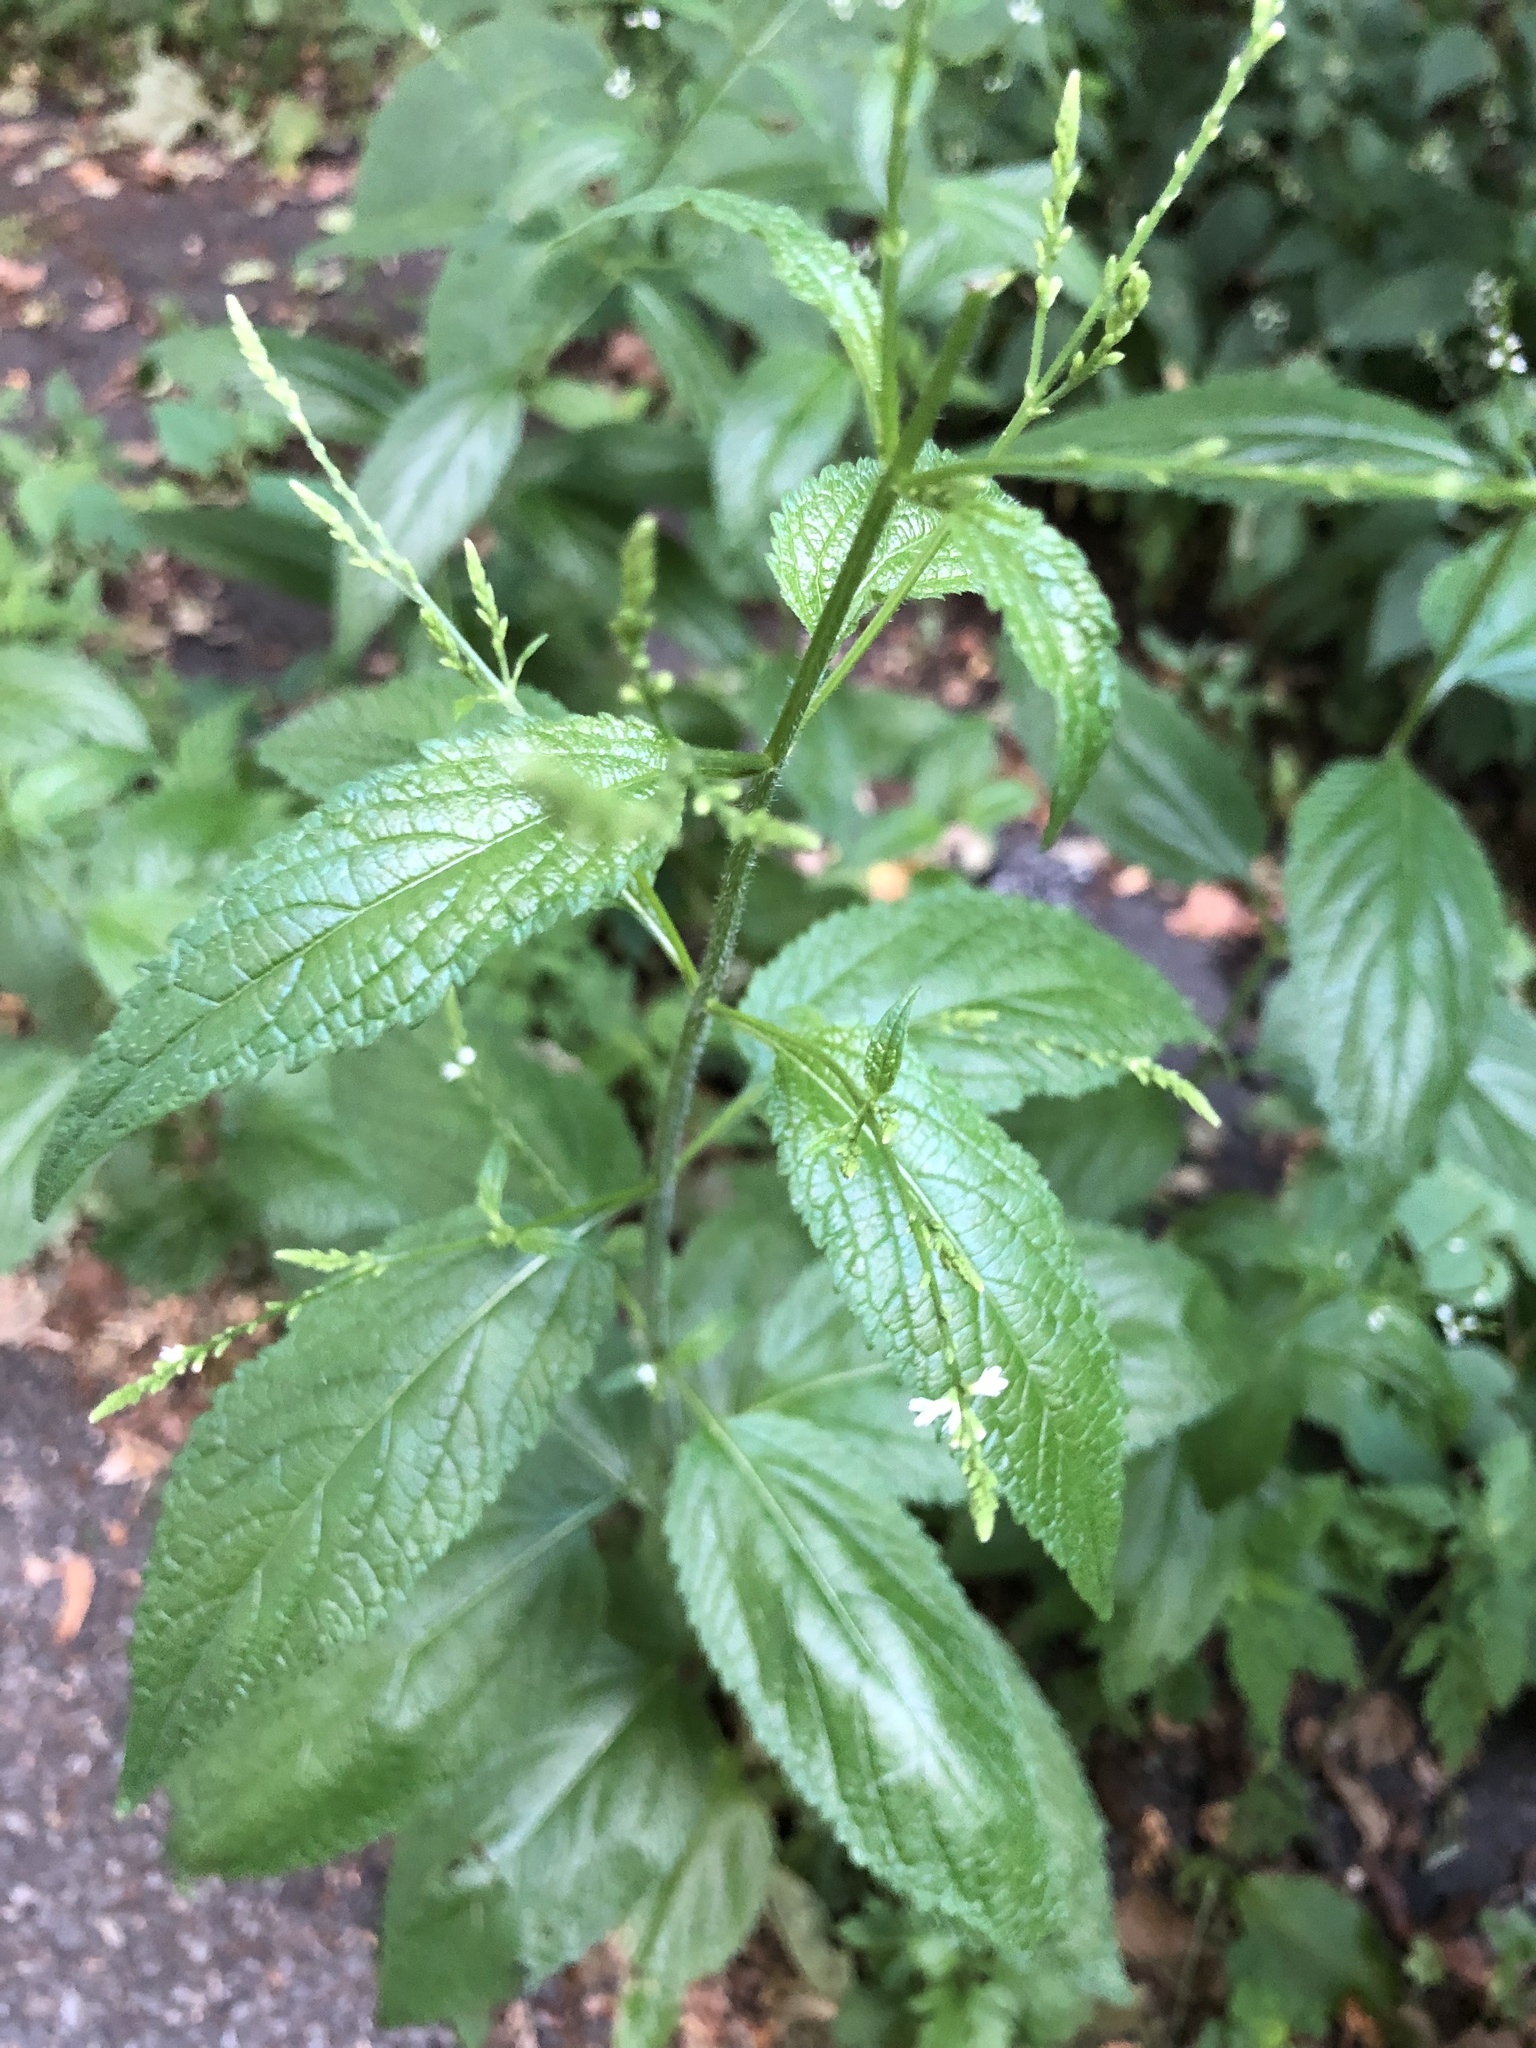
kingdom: Plantae
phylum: Tracheophyta
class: Magnoliopsida
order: Lamiales
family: Verbenaceae
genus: Verbena
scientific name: Verbena urticifolia
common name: Nettle-leaved vervain
